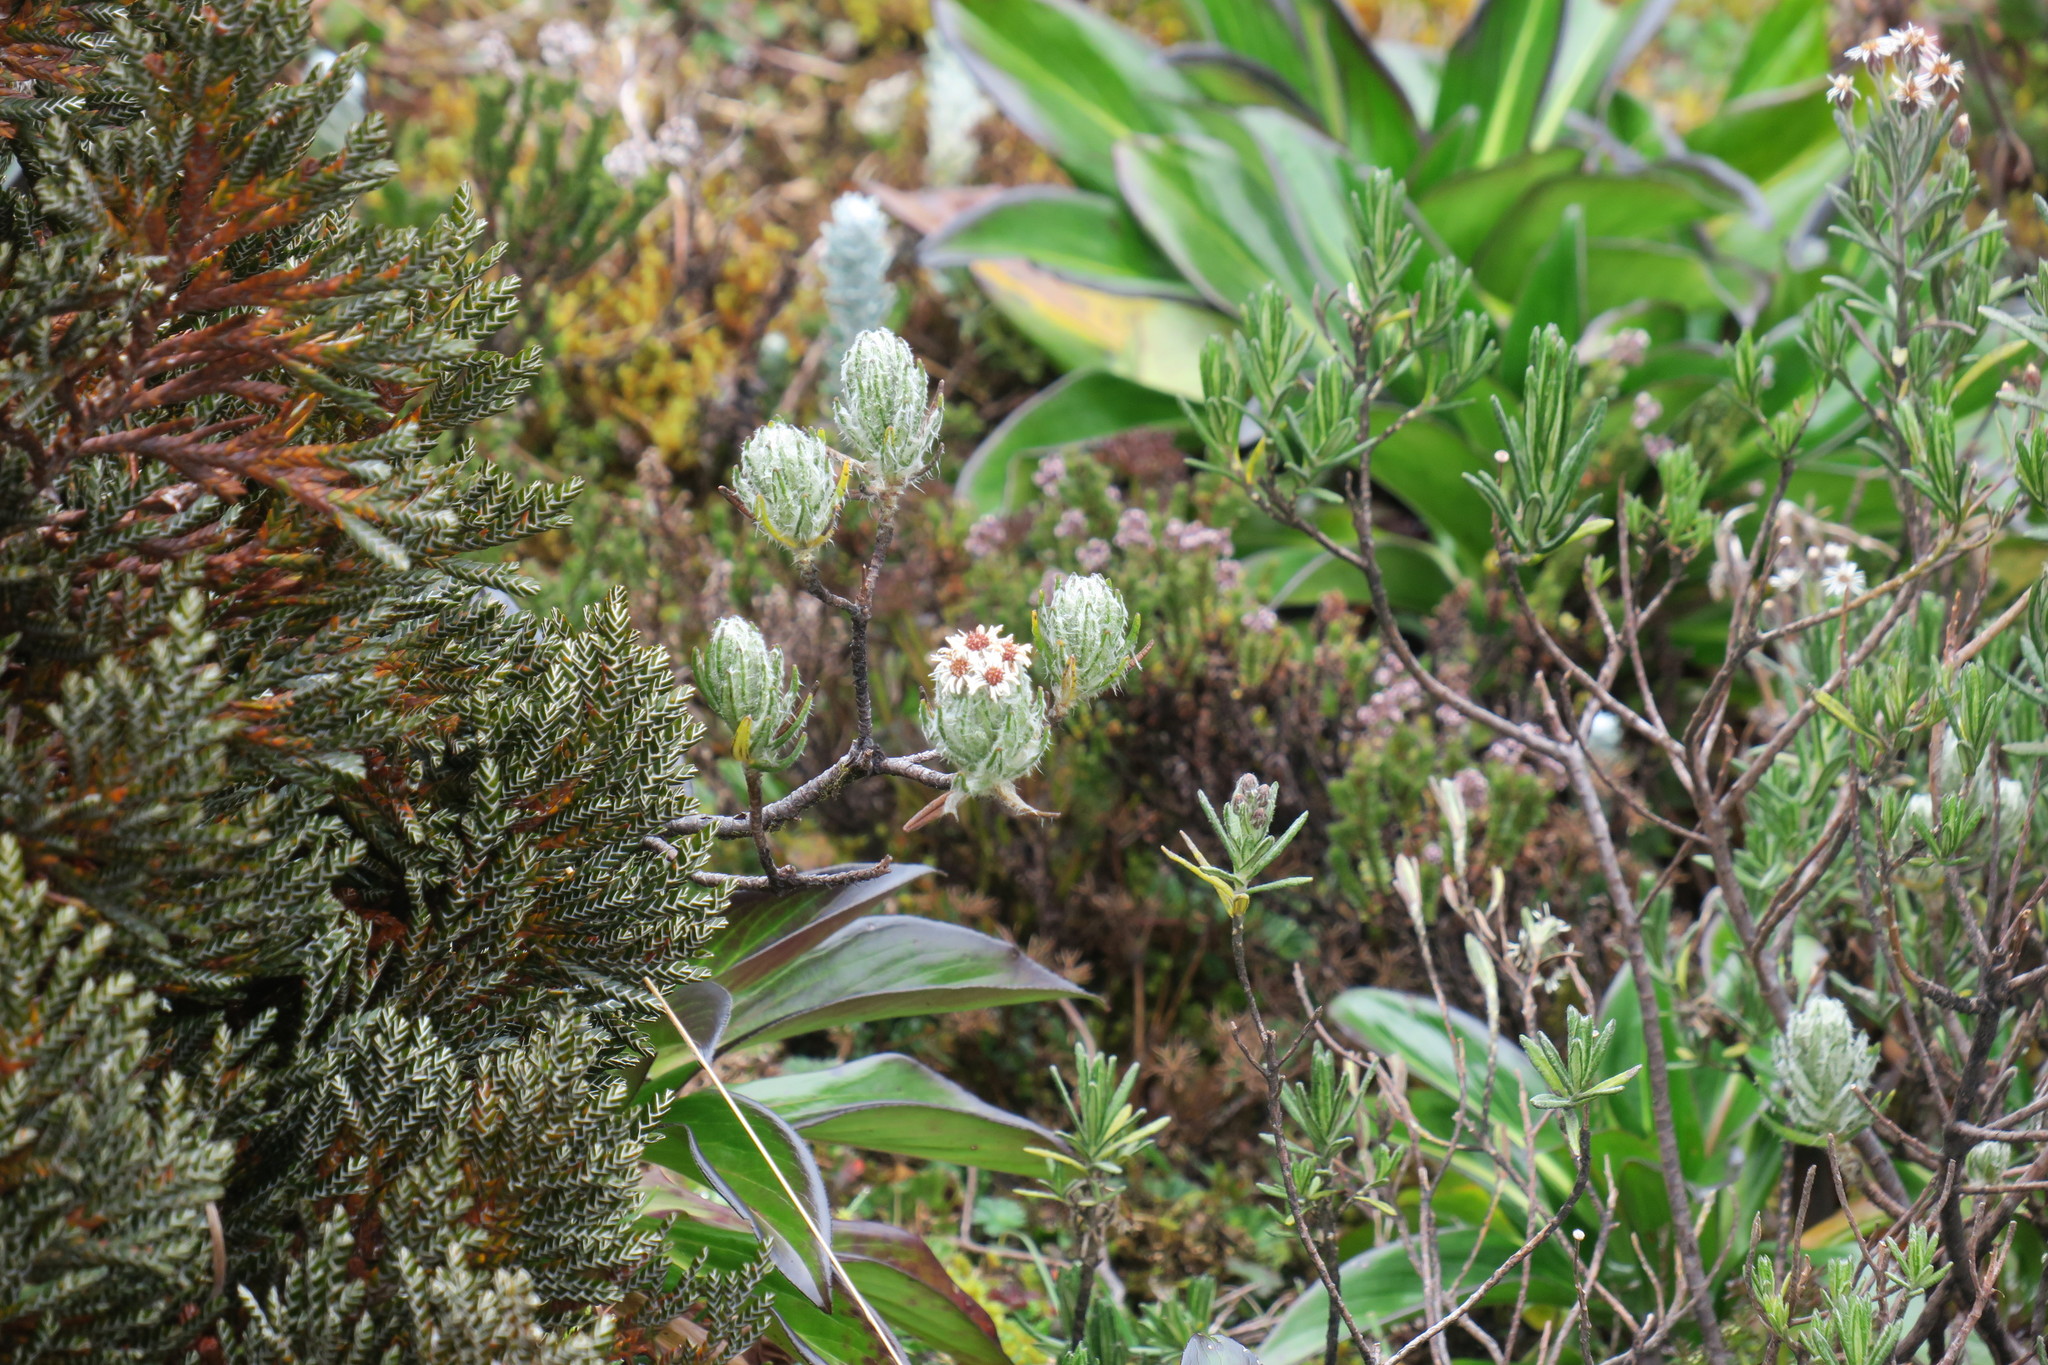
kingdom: Plantae
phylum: Tracheophyta
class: Magnoliopsida
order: Asterales
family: Asteraceae
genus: Linochilus
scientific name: Linochilus rupestris
